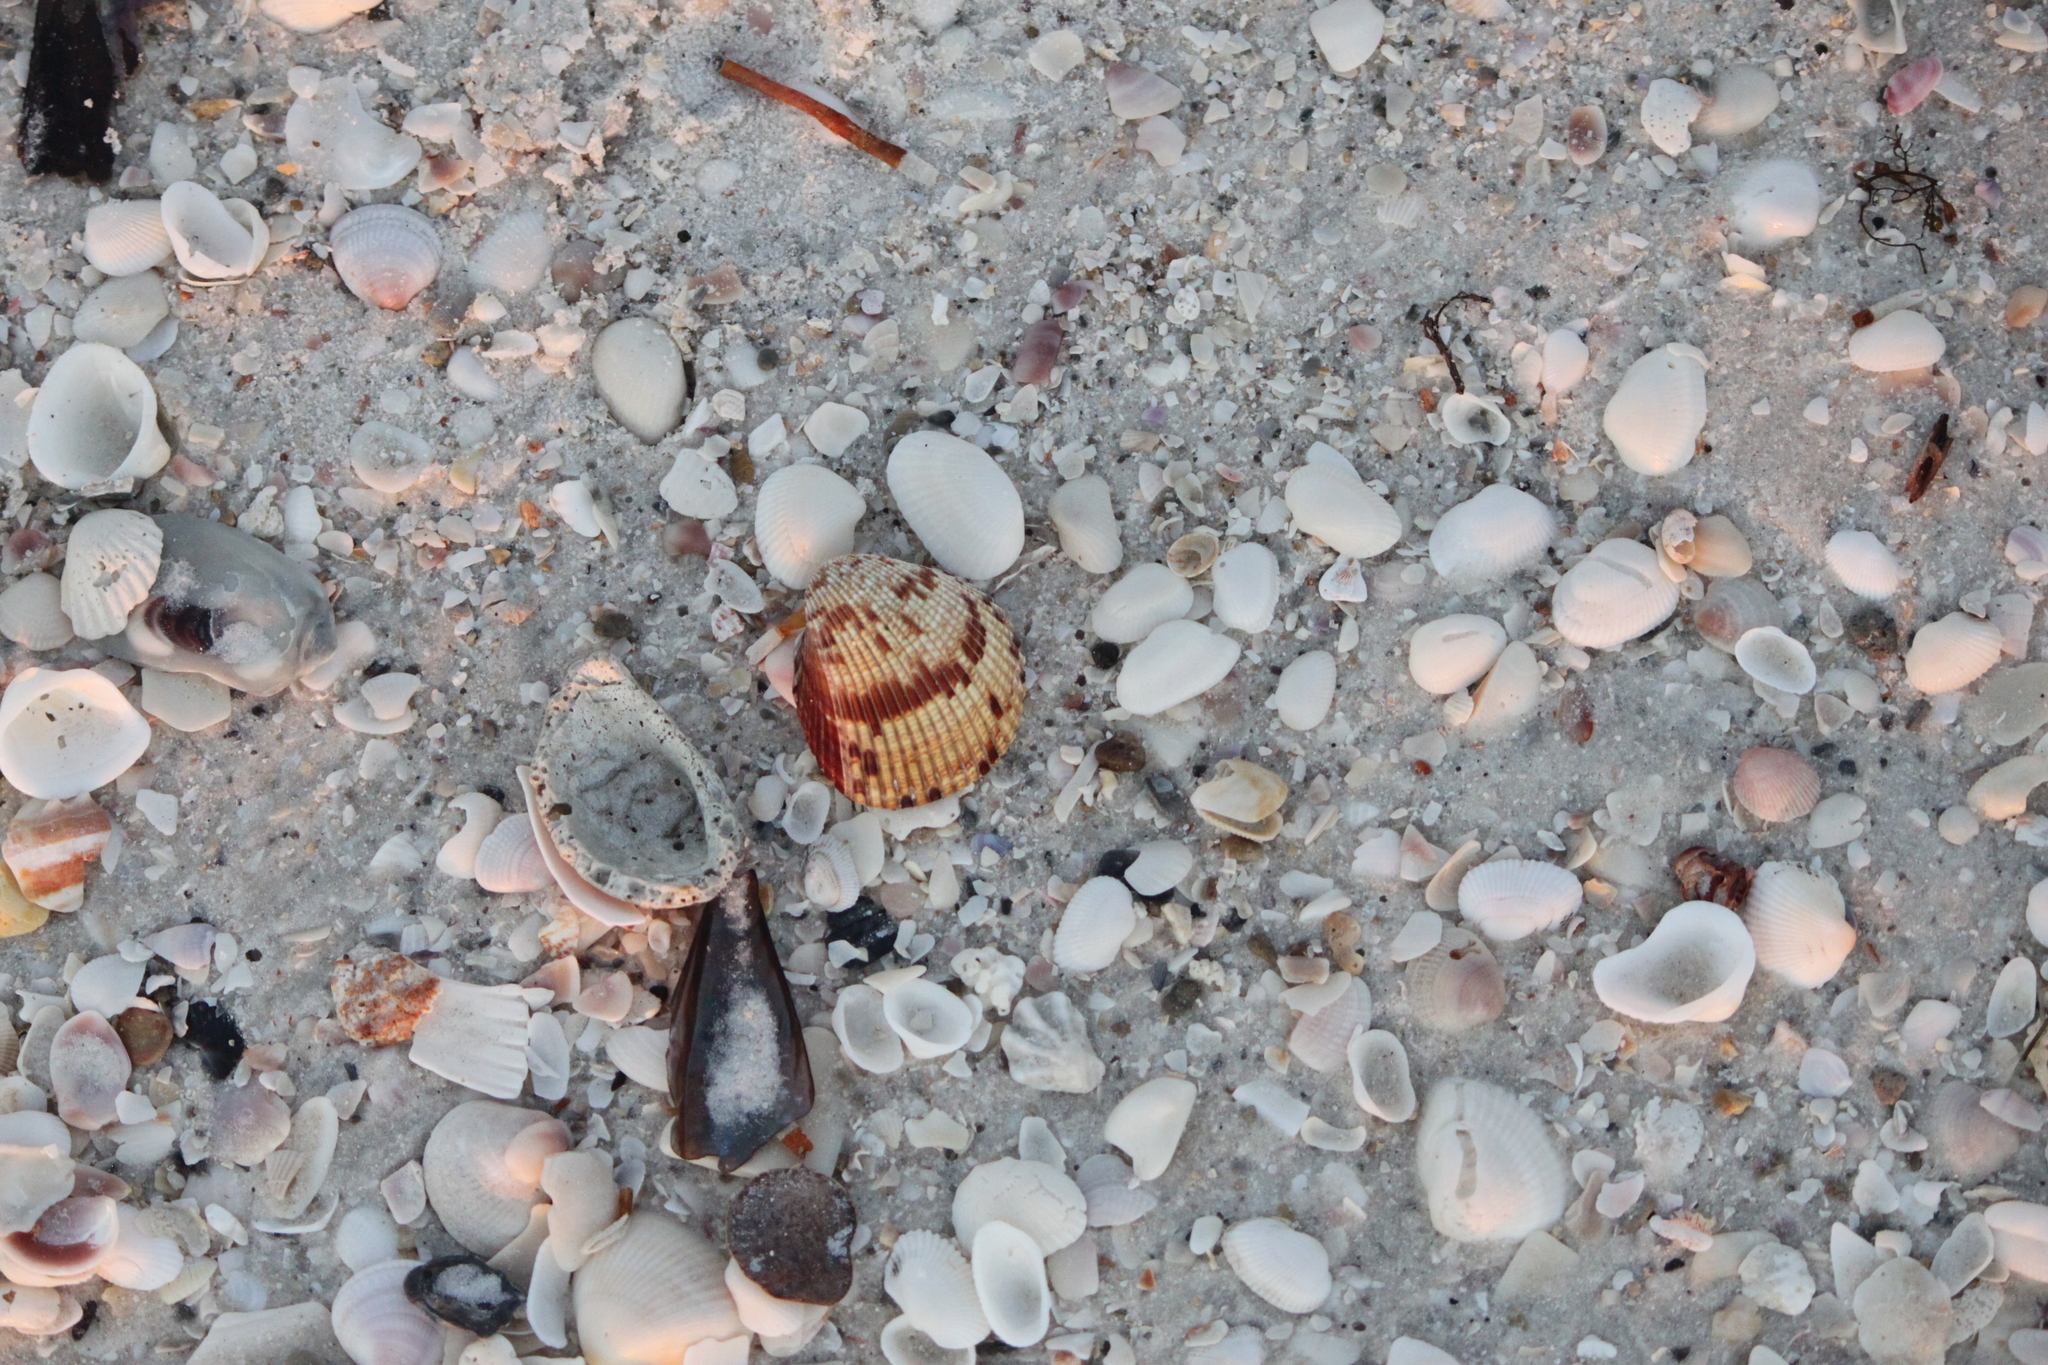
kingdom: Animalia
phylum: Mollusca
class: Bivalvia
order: Cardiida
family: Cardiidae
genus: Dinocardium
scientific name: Dinocardium robustum
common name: Atlantic giant cockle
